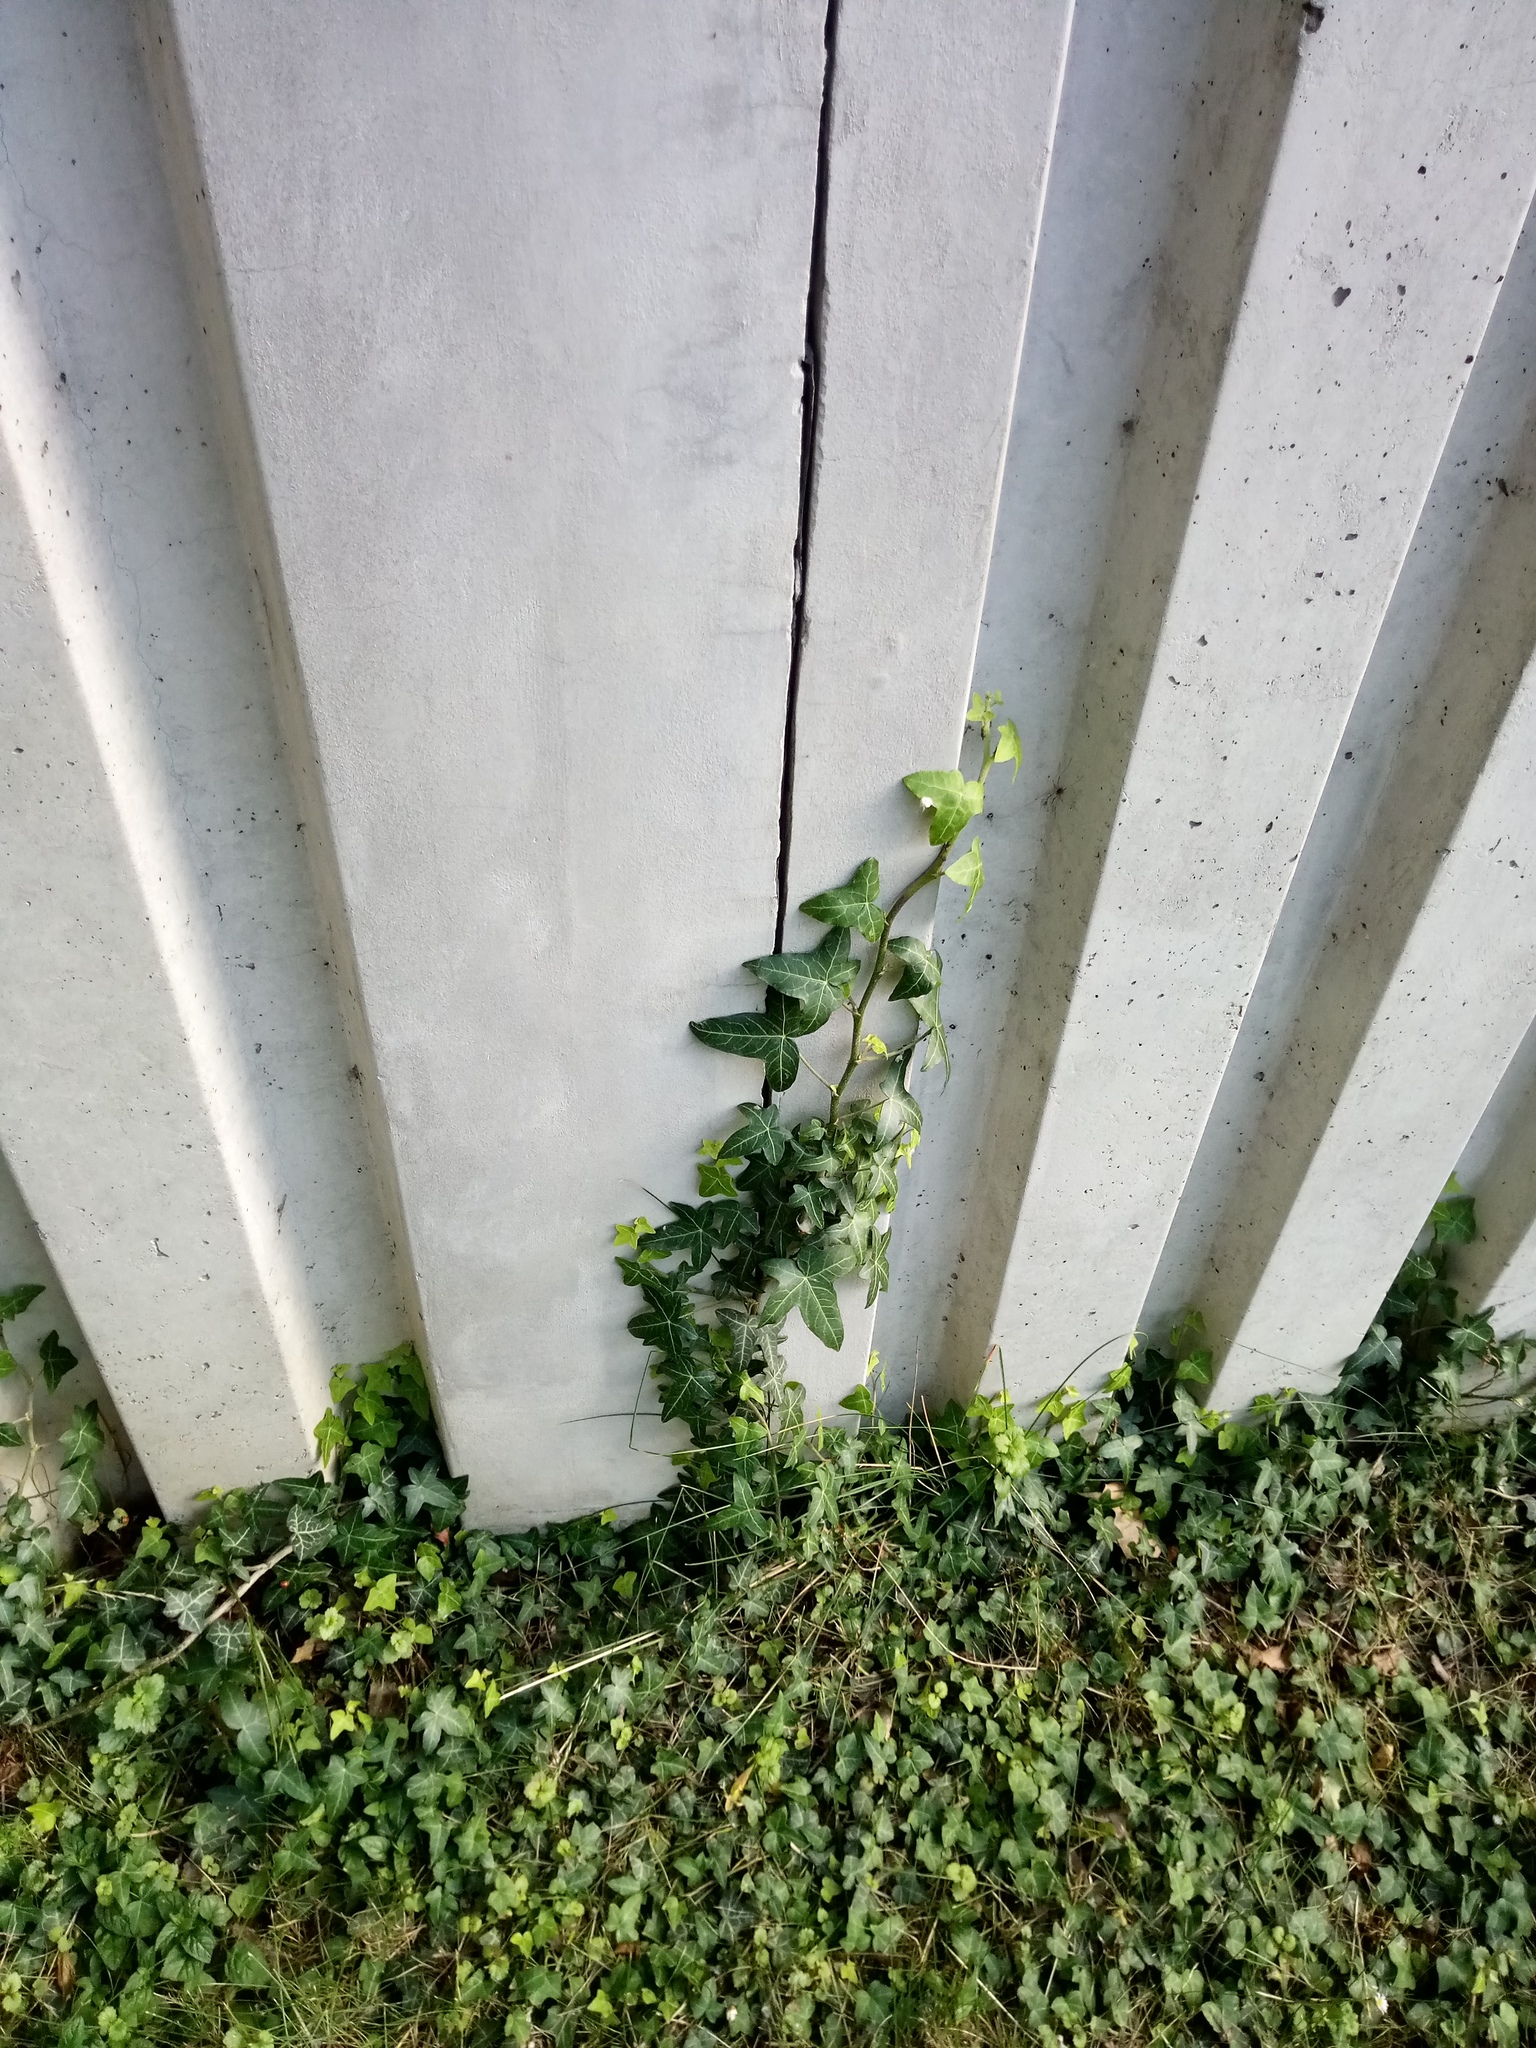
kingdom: Plantae
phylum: Tracheophyta
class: Magnoliopsida
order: Apiales
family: Araliaceae
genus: Hedera
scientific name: Hedera helix
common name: Ivy
